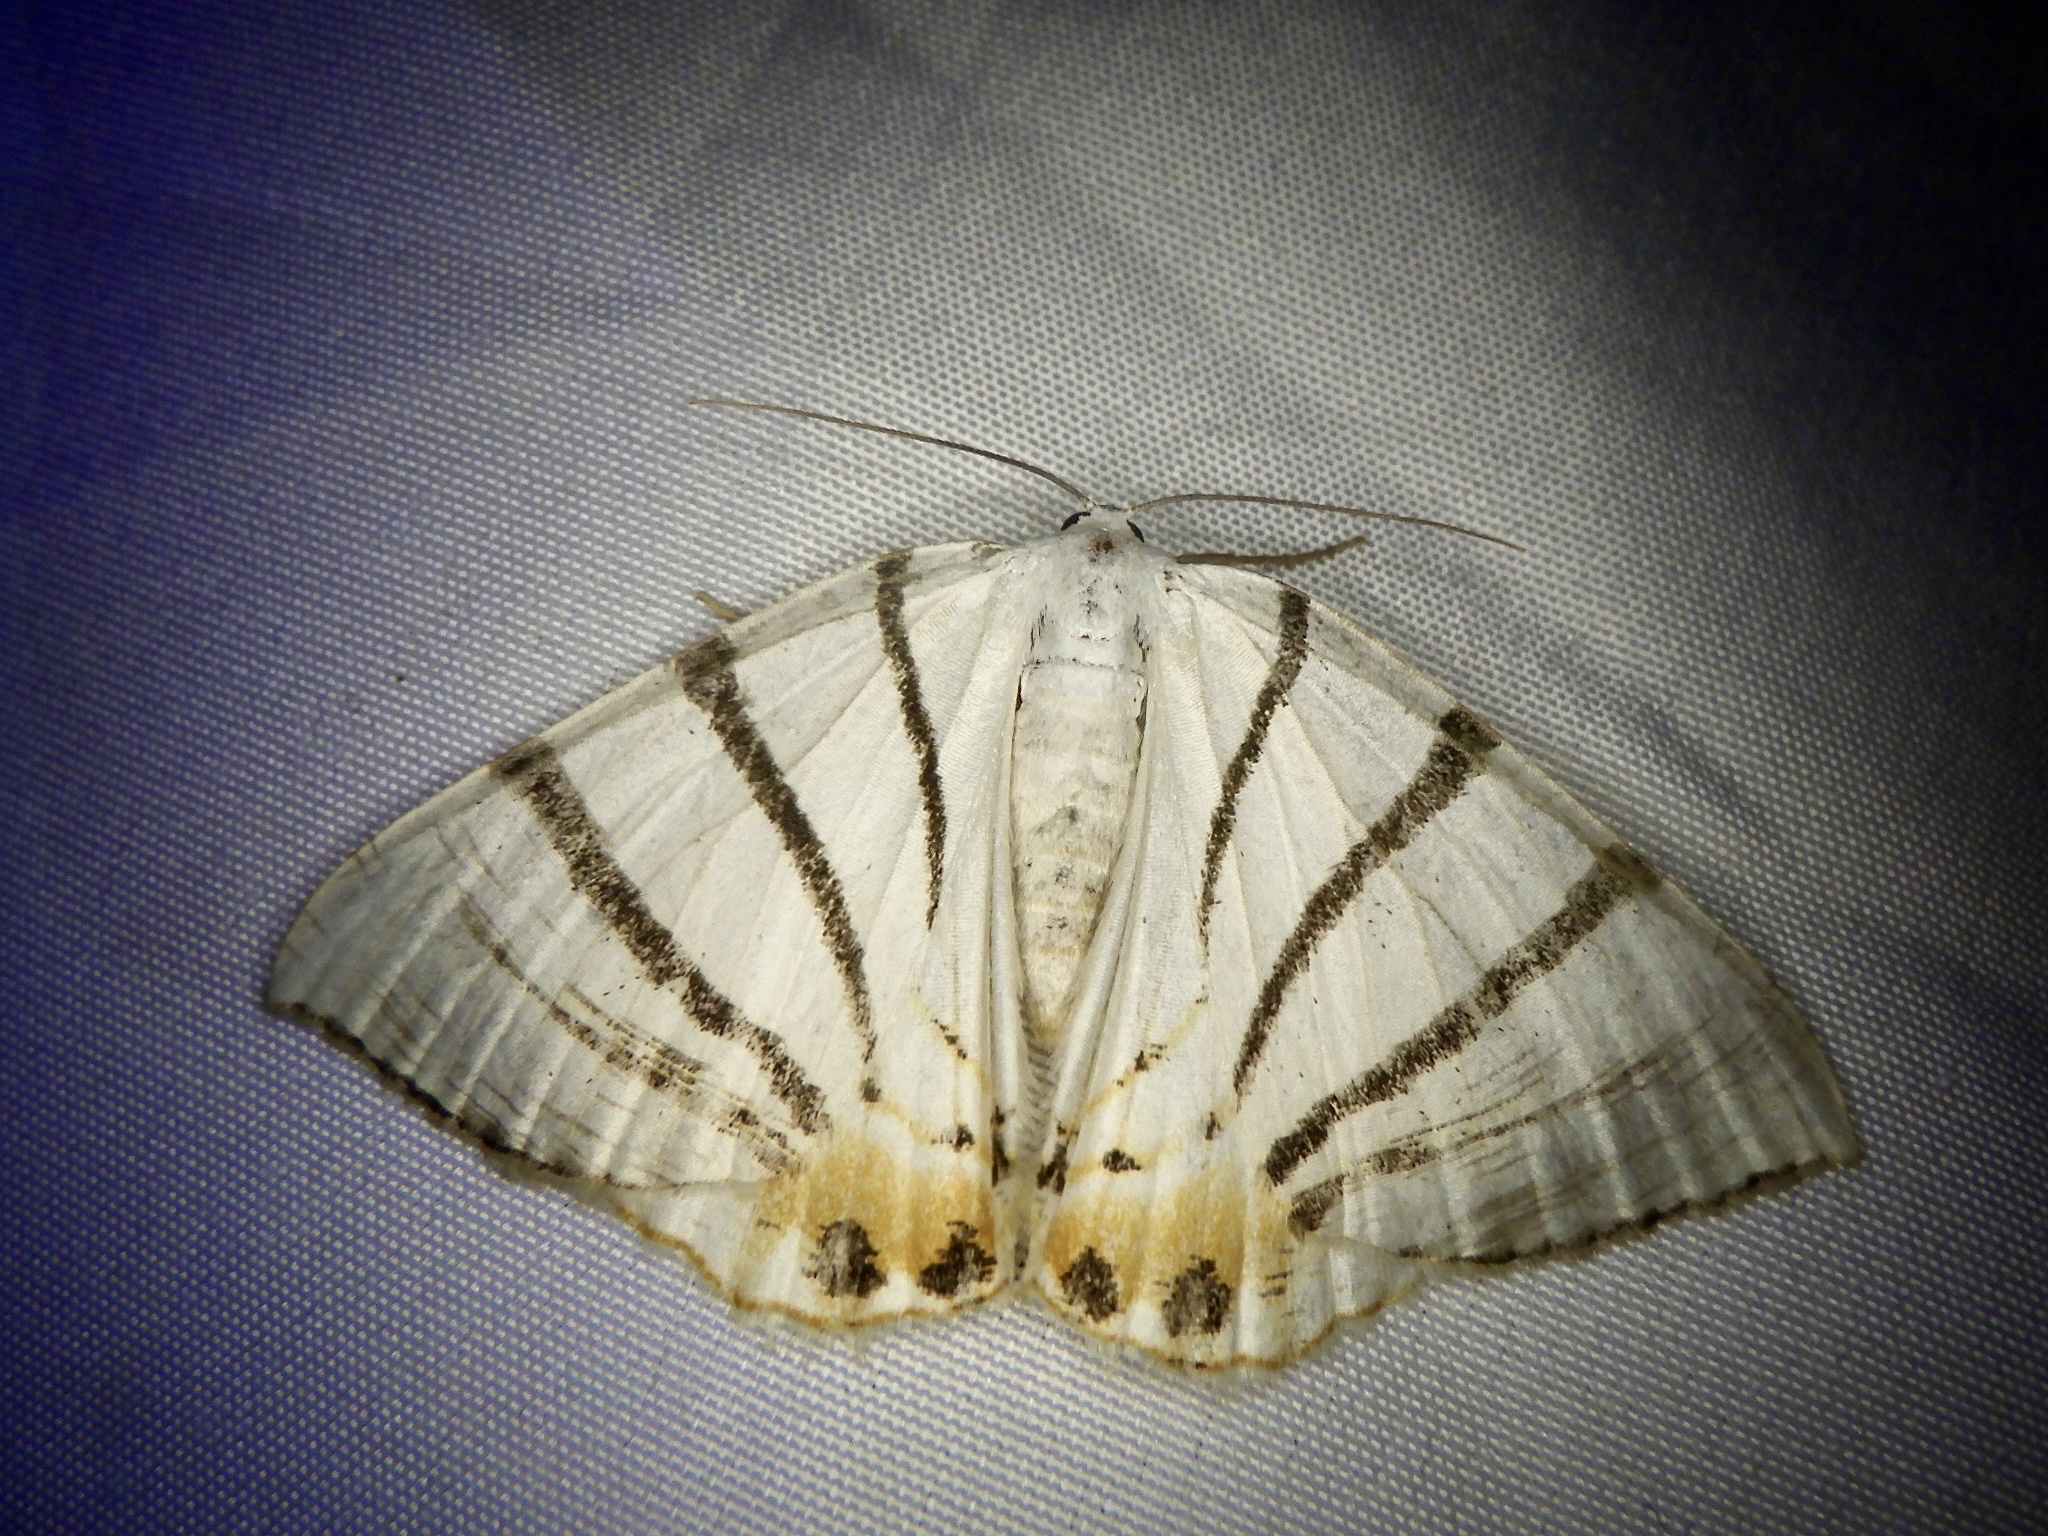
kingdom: Animalia
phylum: Arthropoda
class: Insecta
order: Lepidoptera
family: Geometridae
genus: Myrteta
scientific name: Myrteta angelica
